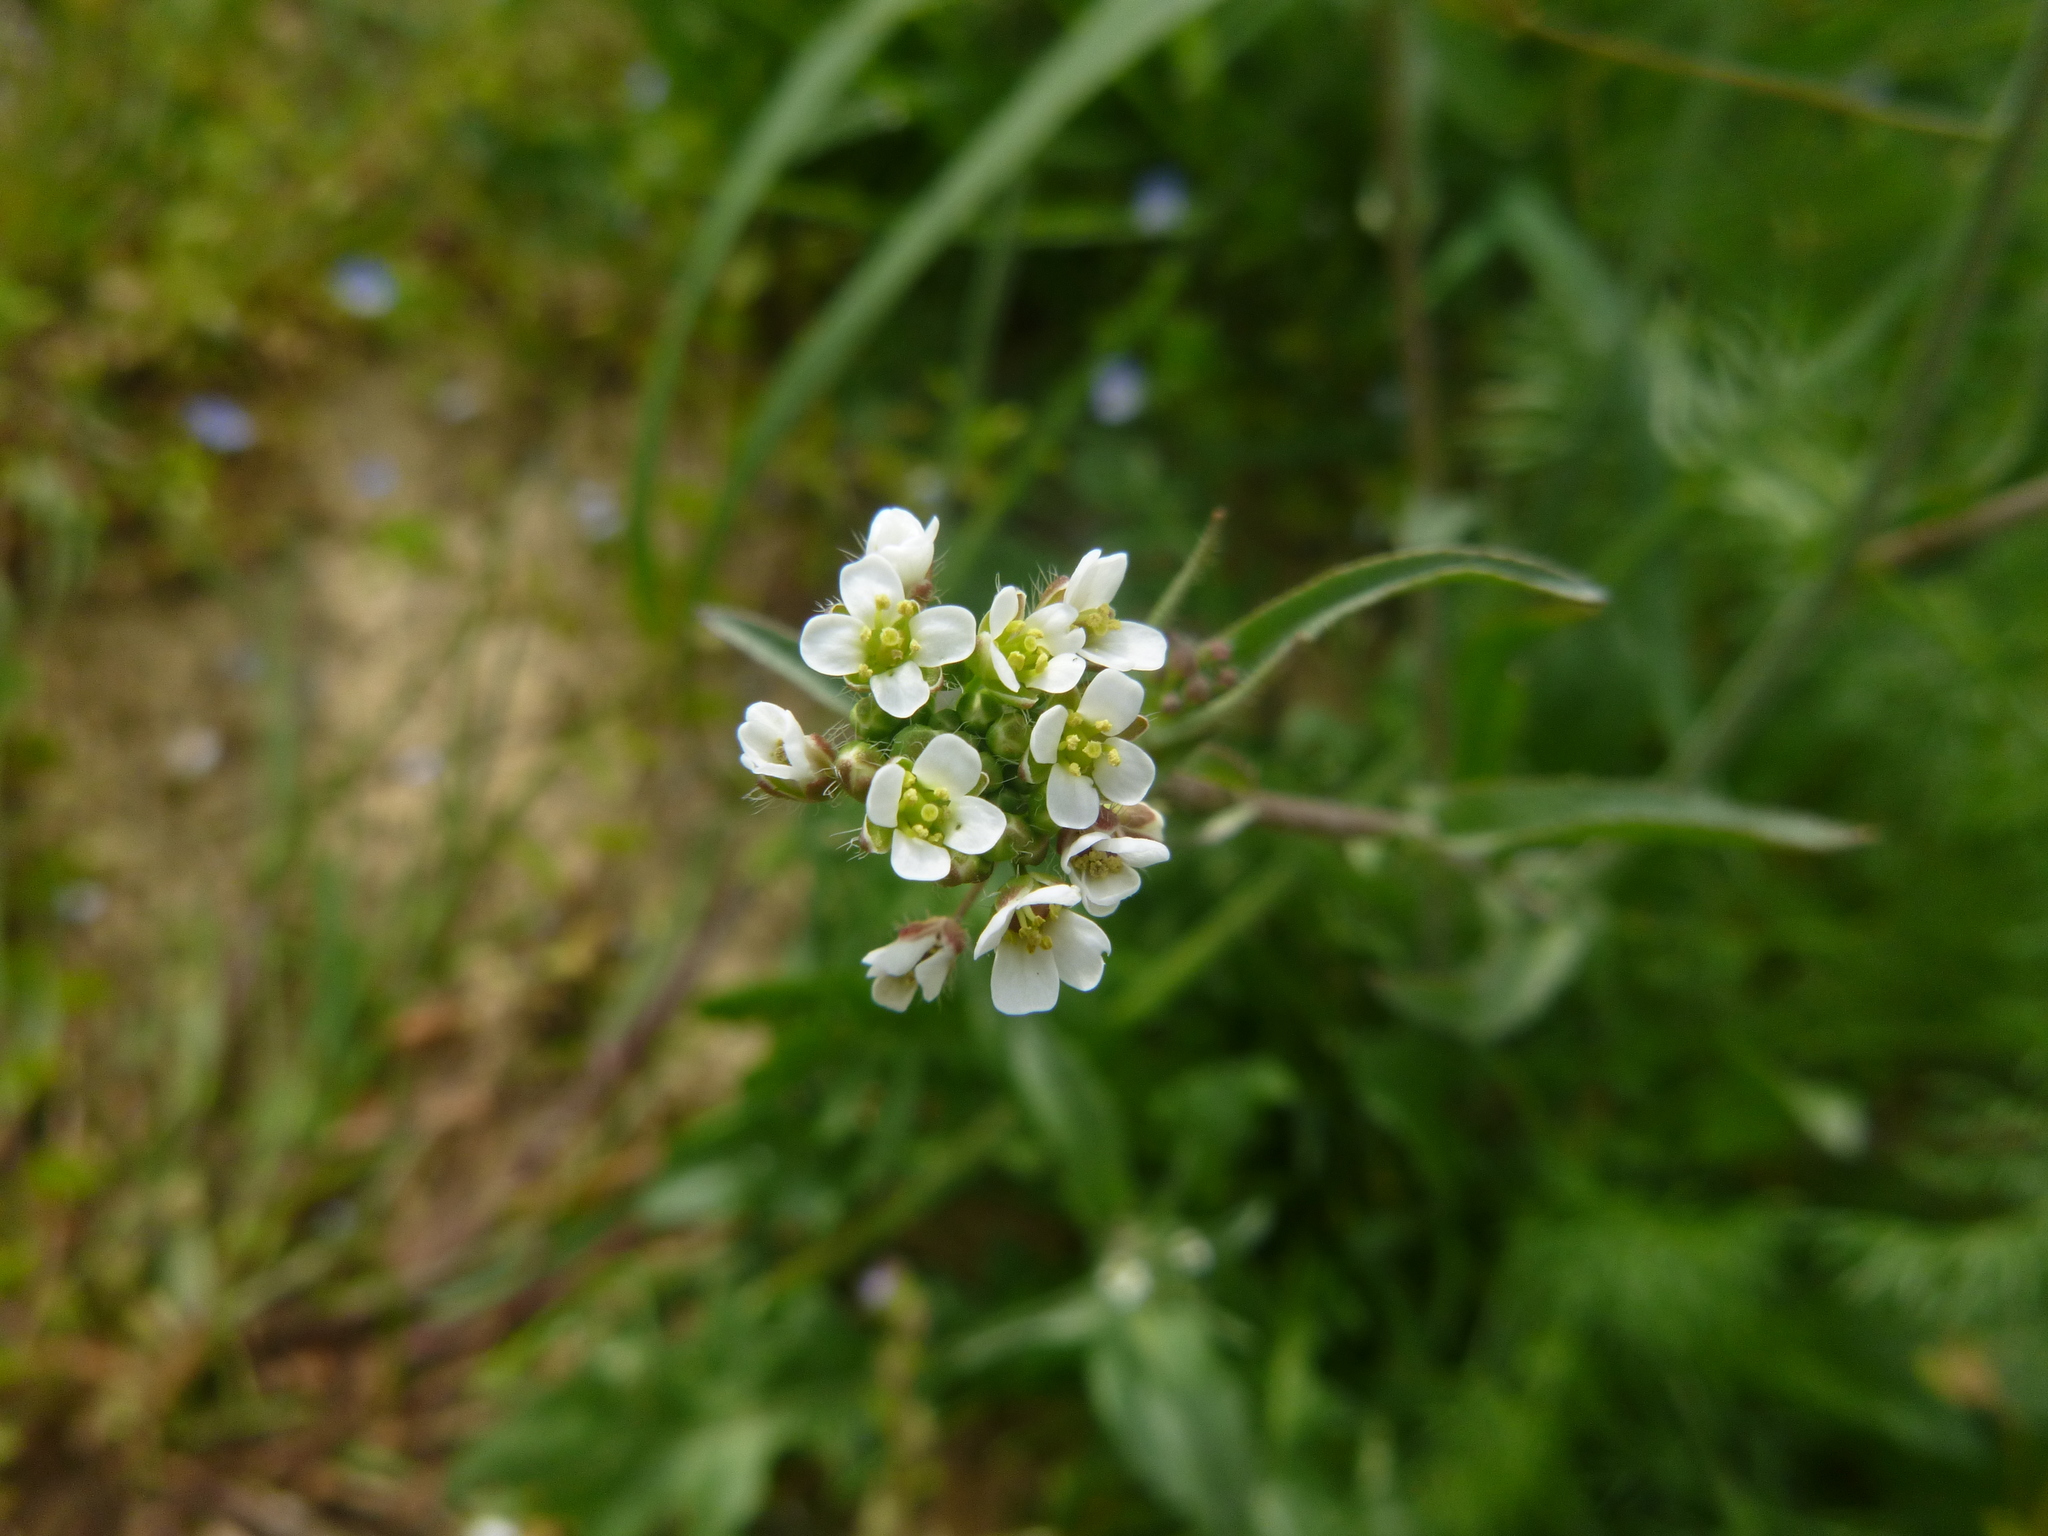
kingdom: Plantae
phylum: Tracheophyta
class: Magnoliopsida
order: Brassicales
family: Brassicaceae
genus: Capsella
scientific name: Capsella bursa-pastoris
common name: Shepherd's purse
